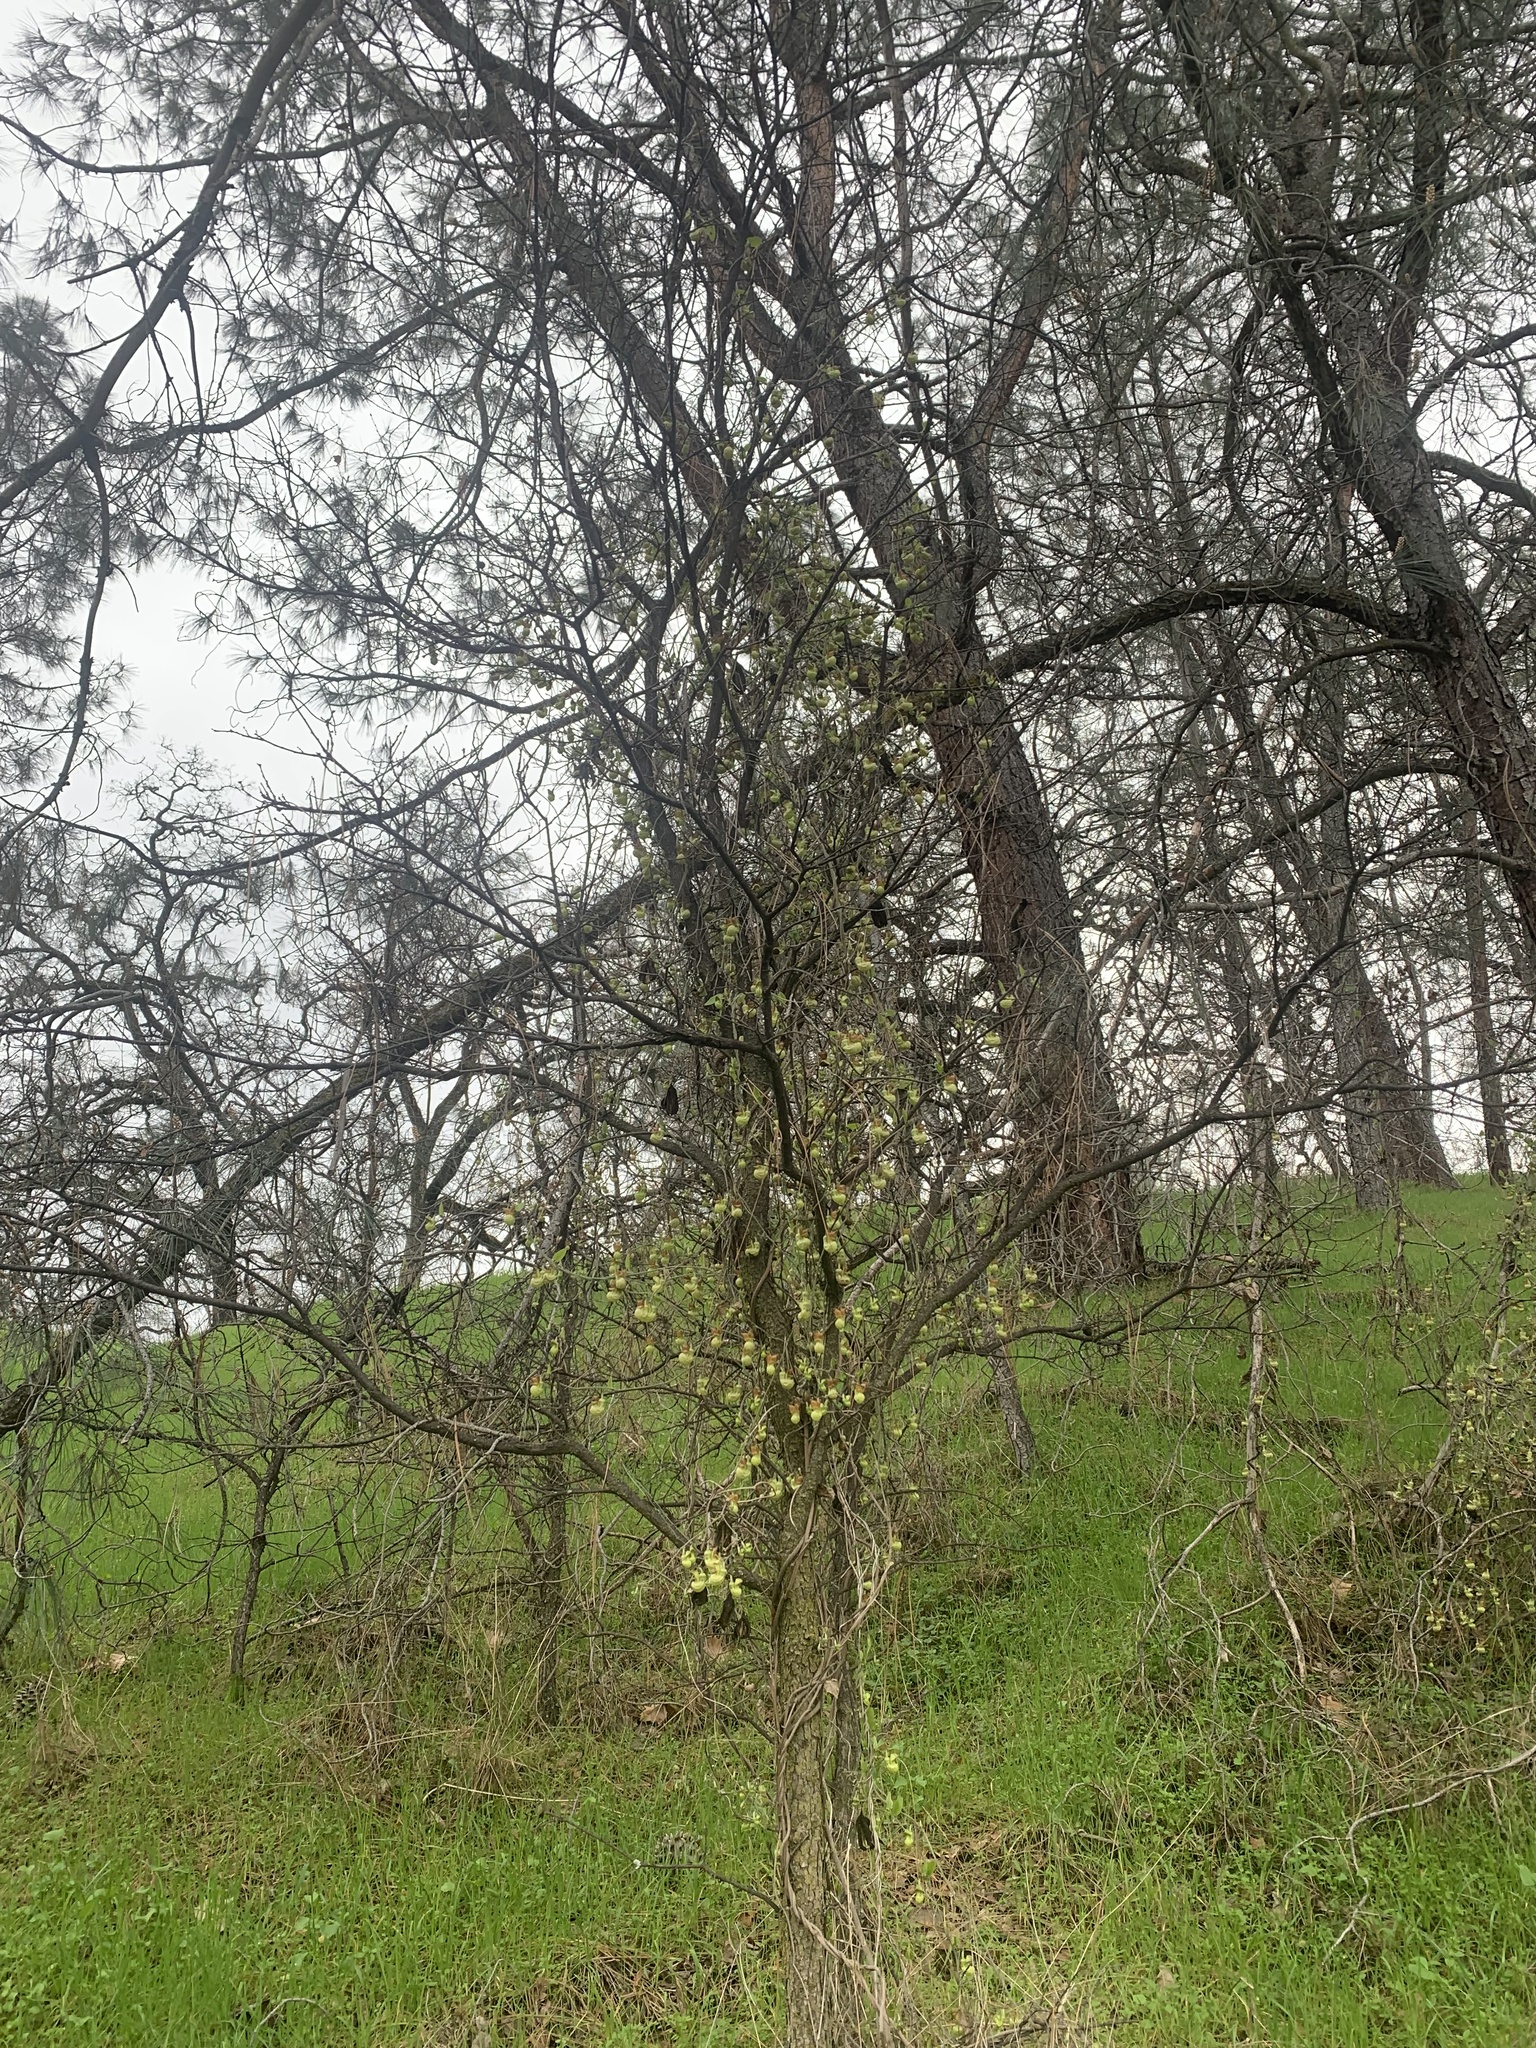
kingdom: Plantae
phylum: Tracheophyta
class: Magnoliopsida
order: Piperales
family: Aristolochiaceae
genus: Isotrema
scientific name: Isotrema californicum
